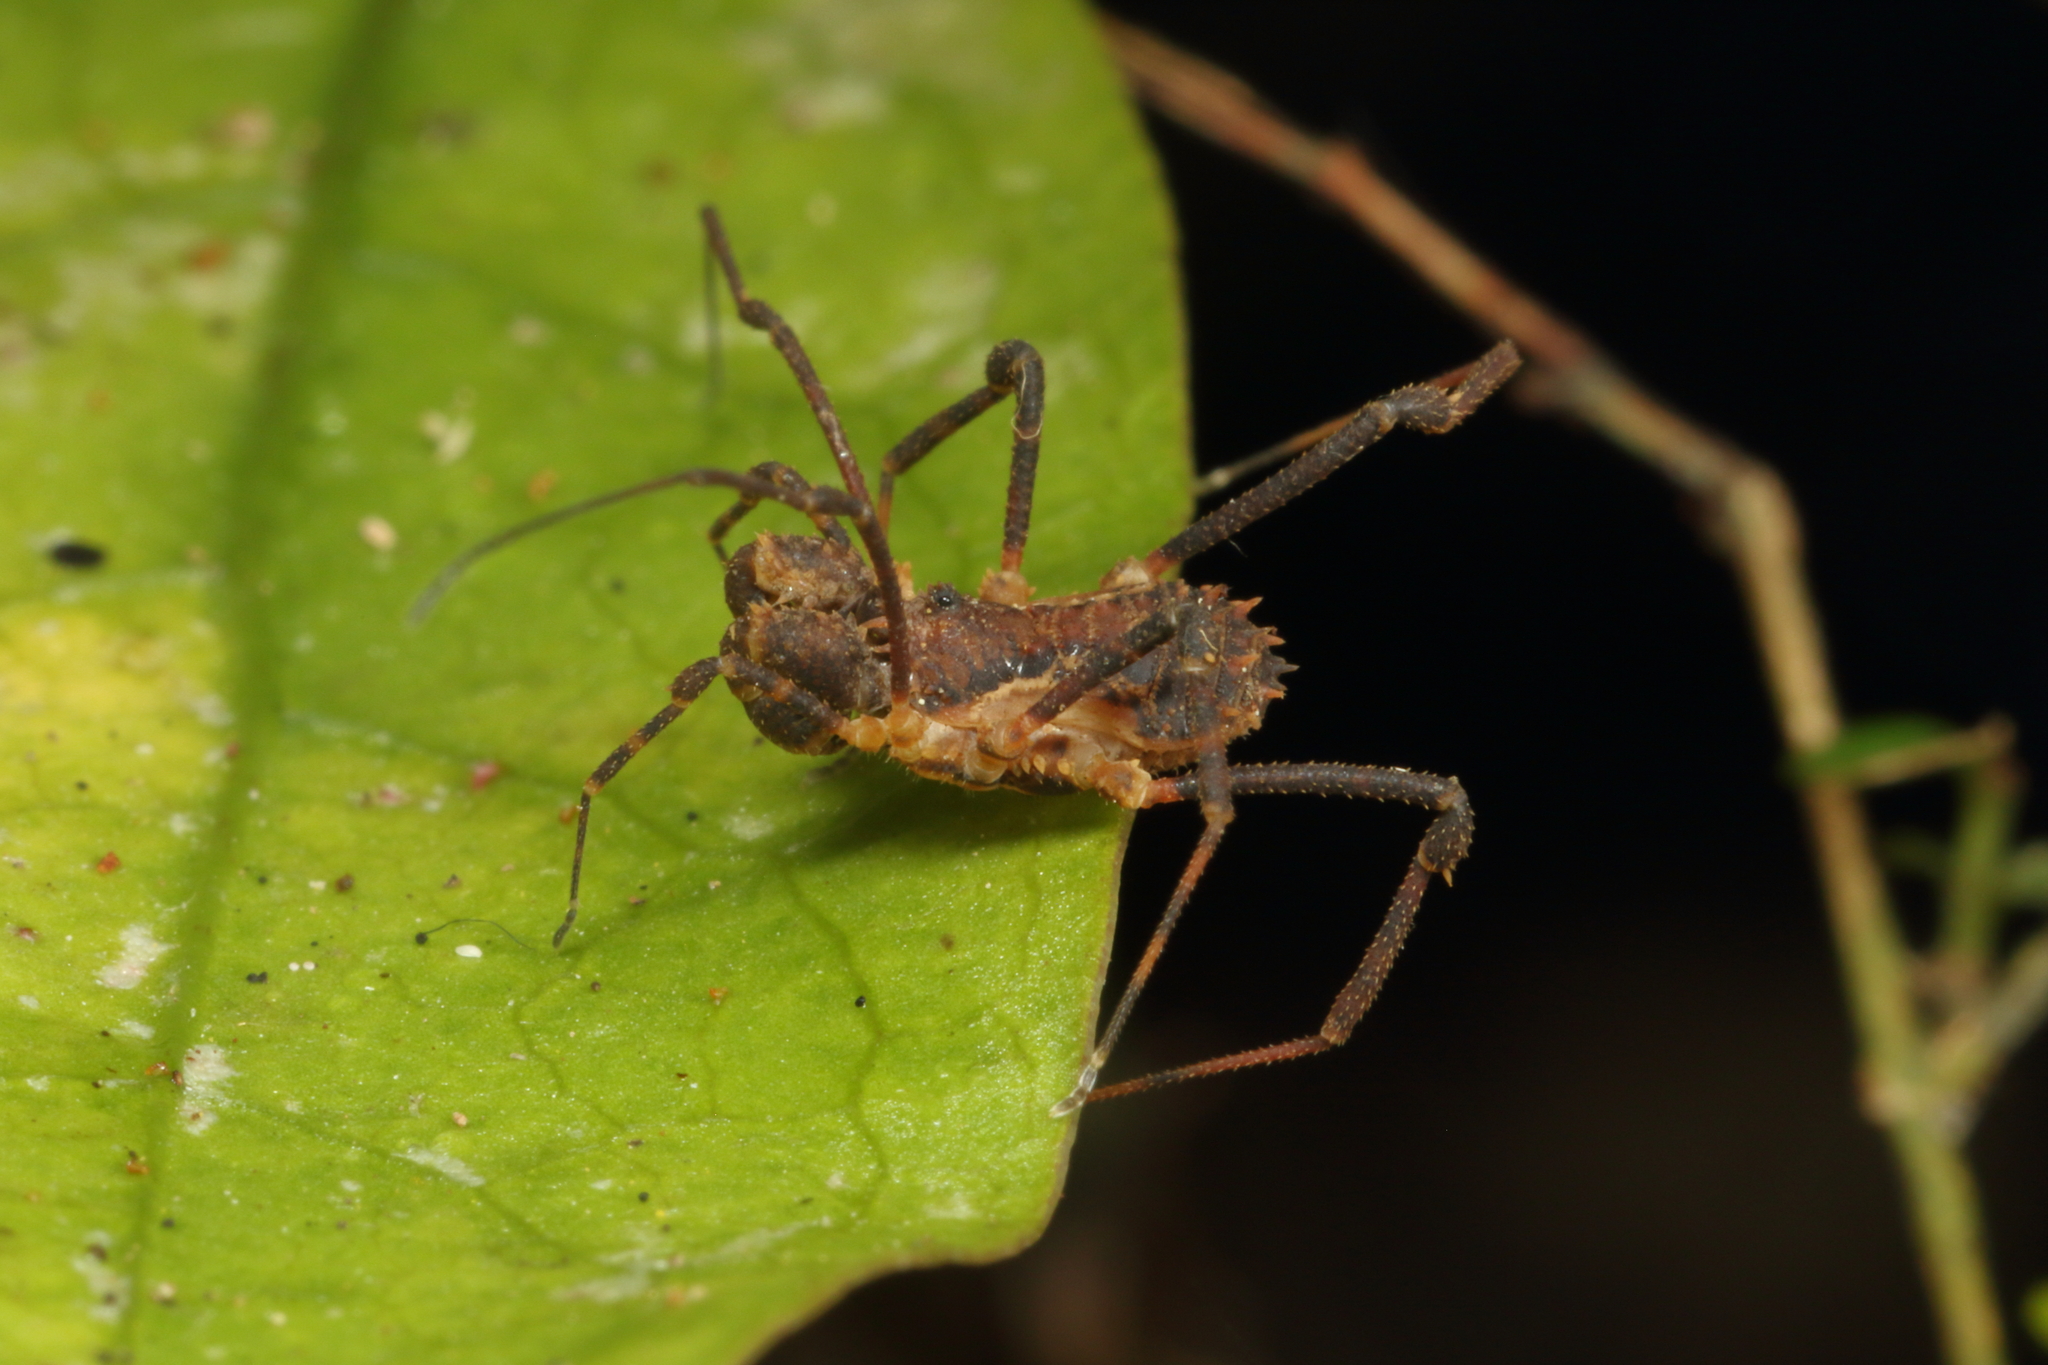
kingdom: Animalia
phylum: Arthropoda
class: Arachnida
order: Opiliones
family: Triaenonychidae
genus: Algidia
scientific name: Algidia nigriflava
